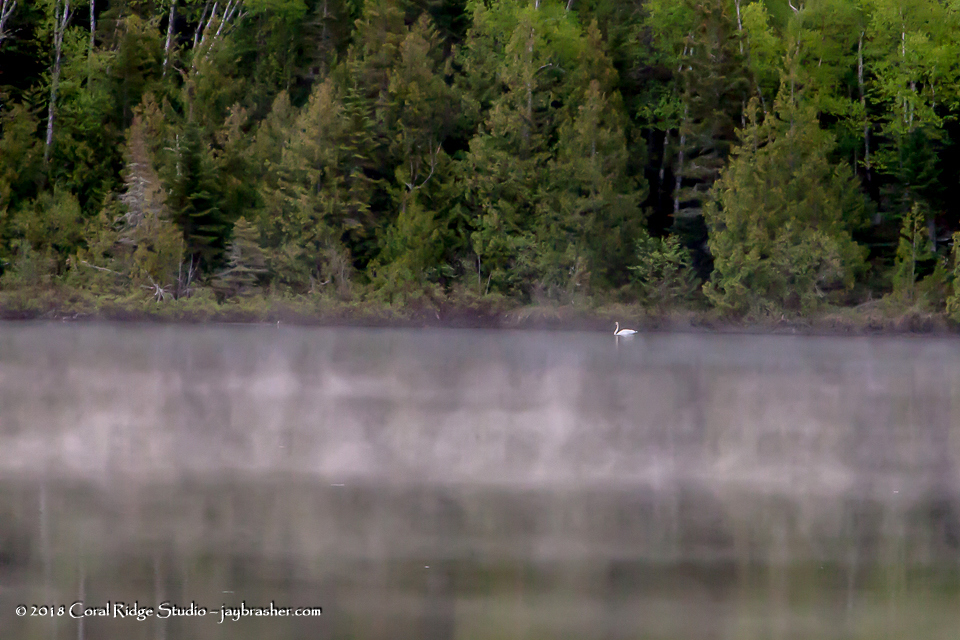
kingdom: Animalia
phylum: Chordata
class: Aves
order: Anseriformes
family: Anatidae
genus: Cygnus
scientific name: Cygnus buccinator
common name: Trumpeter swan
